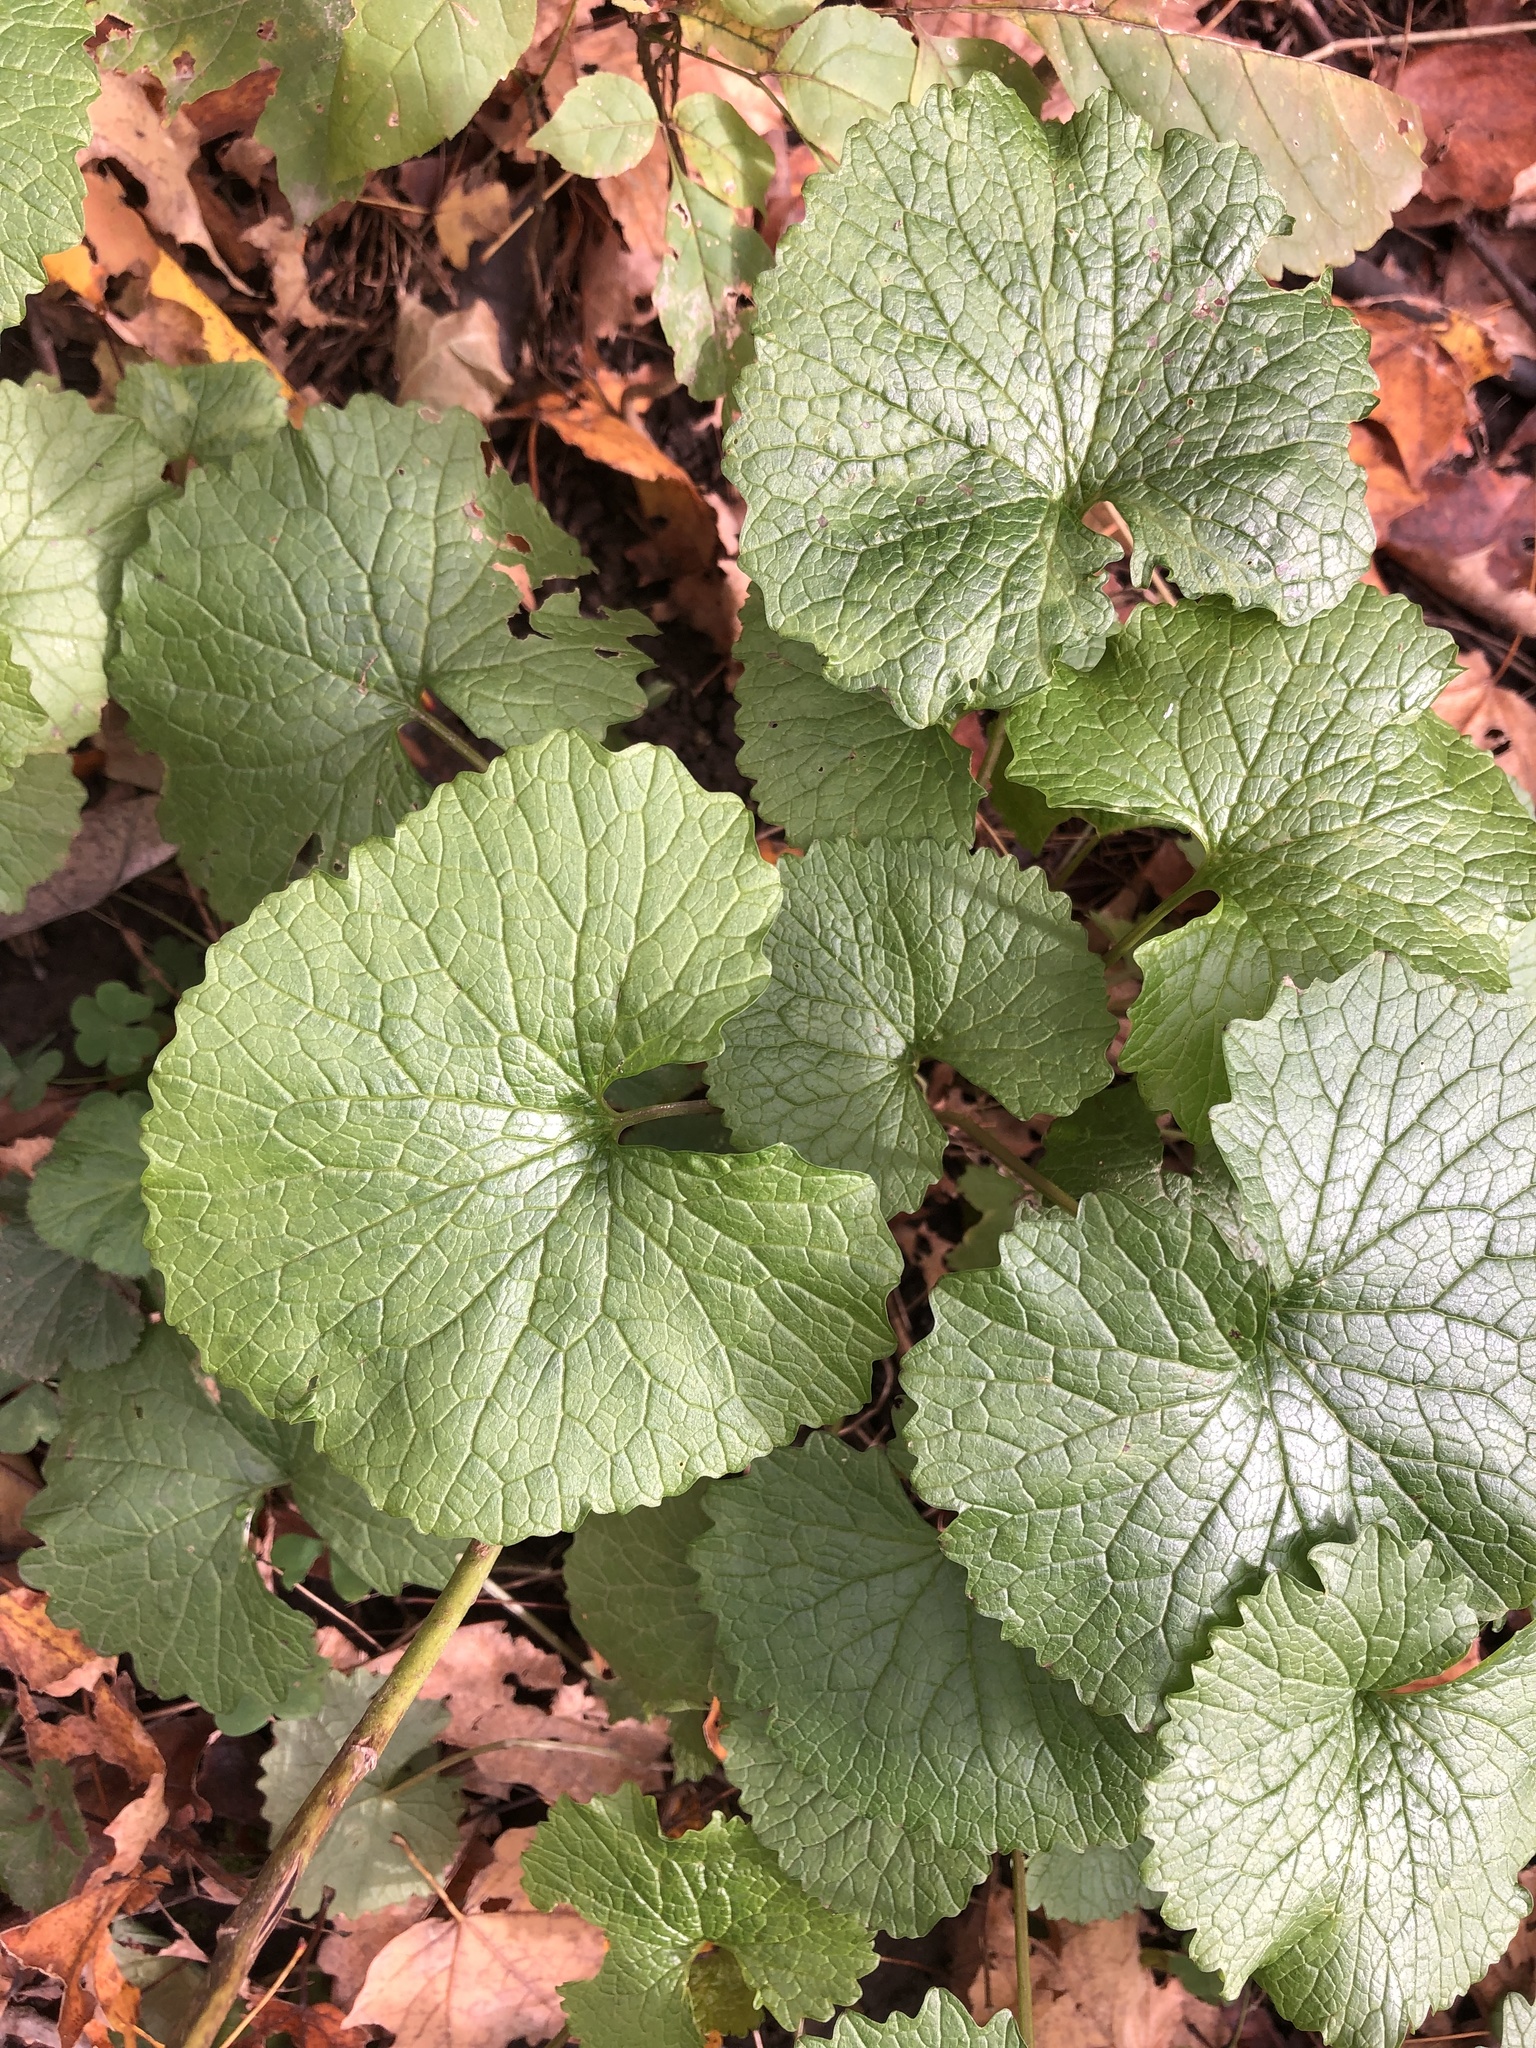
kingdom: Plantae
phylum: Tracheophyta
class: Magnoliopsida
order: Brassicales
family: Brassicaceae
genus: Alliaria
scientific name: Alliaria petiolata
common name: Garlic mustard
